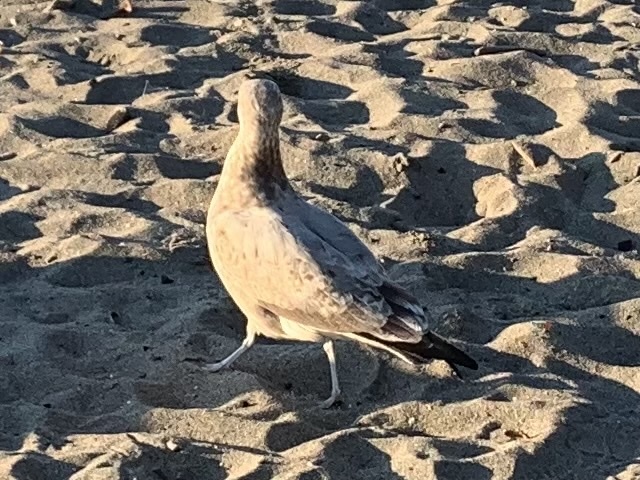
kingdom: Animalia
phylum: Chordata
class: Aves
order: Charadriiformes
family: Laridae
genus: Larus
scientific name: Larus
